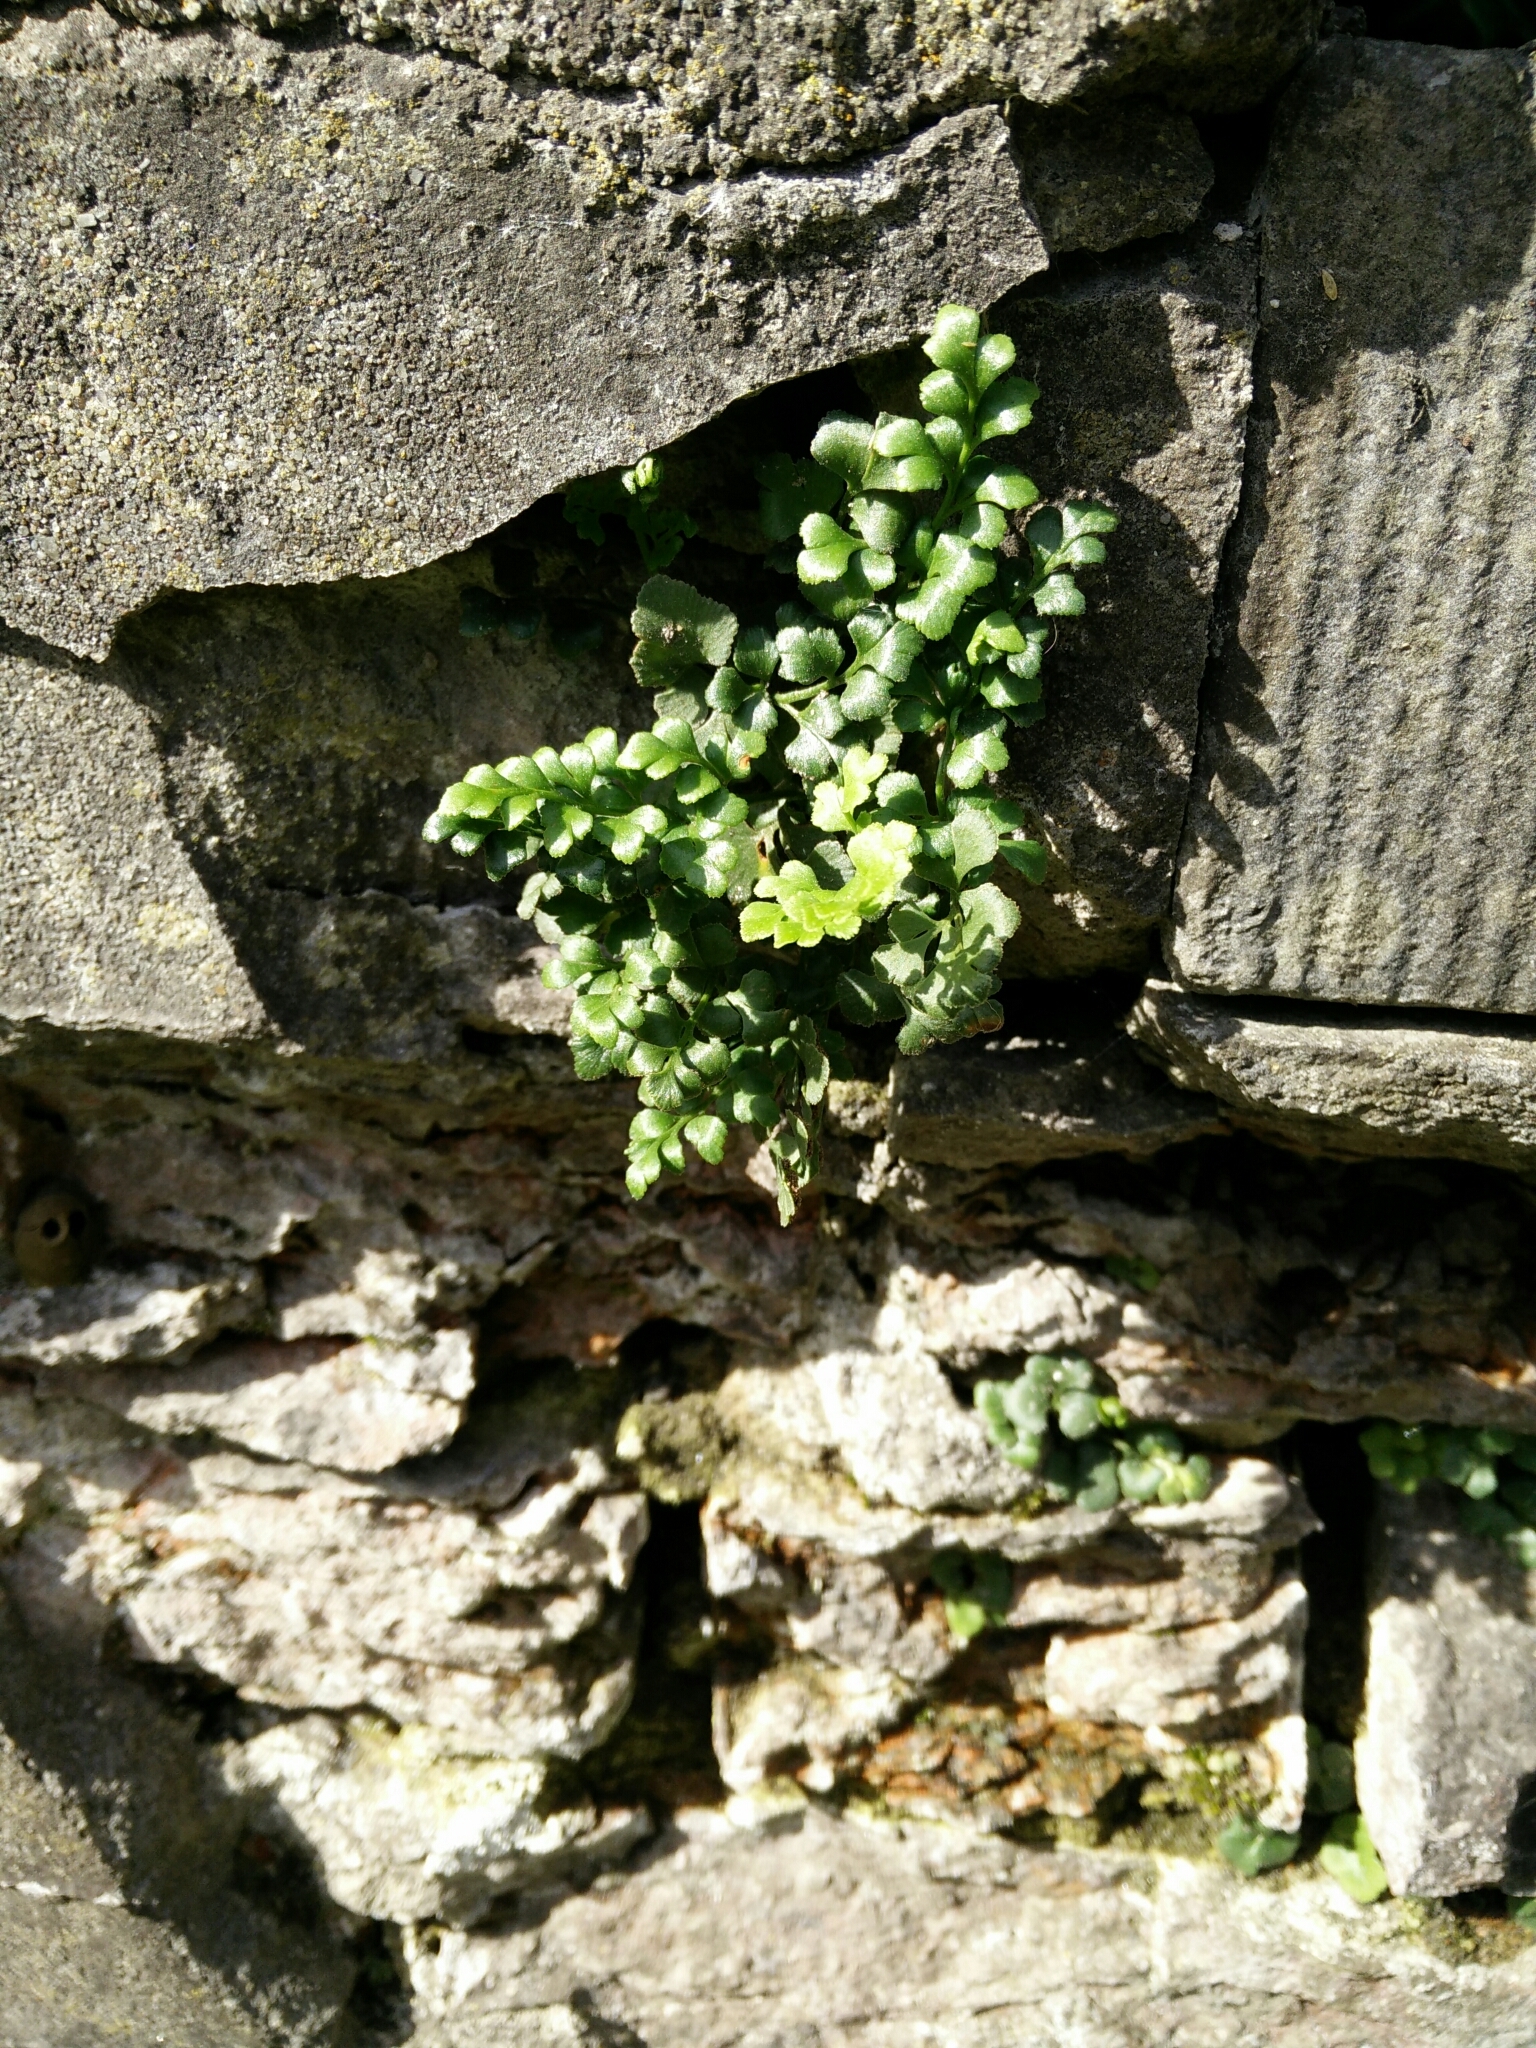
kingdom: Plantae
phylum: Tracheophyta
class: Polypodiopsida
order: Polypodiales
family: Aspleniaceae
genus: Asplenium
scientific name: Asplenium ruta-muraria
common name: Wall-rue
